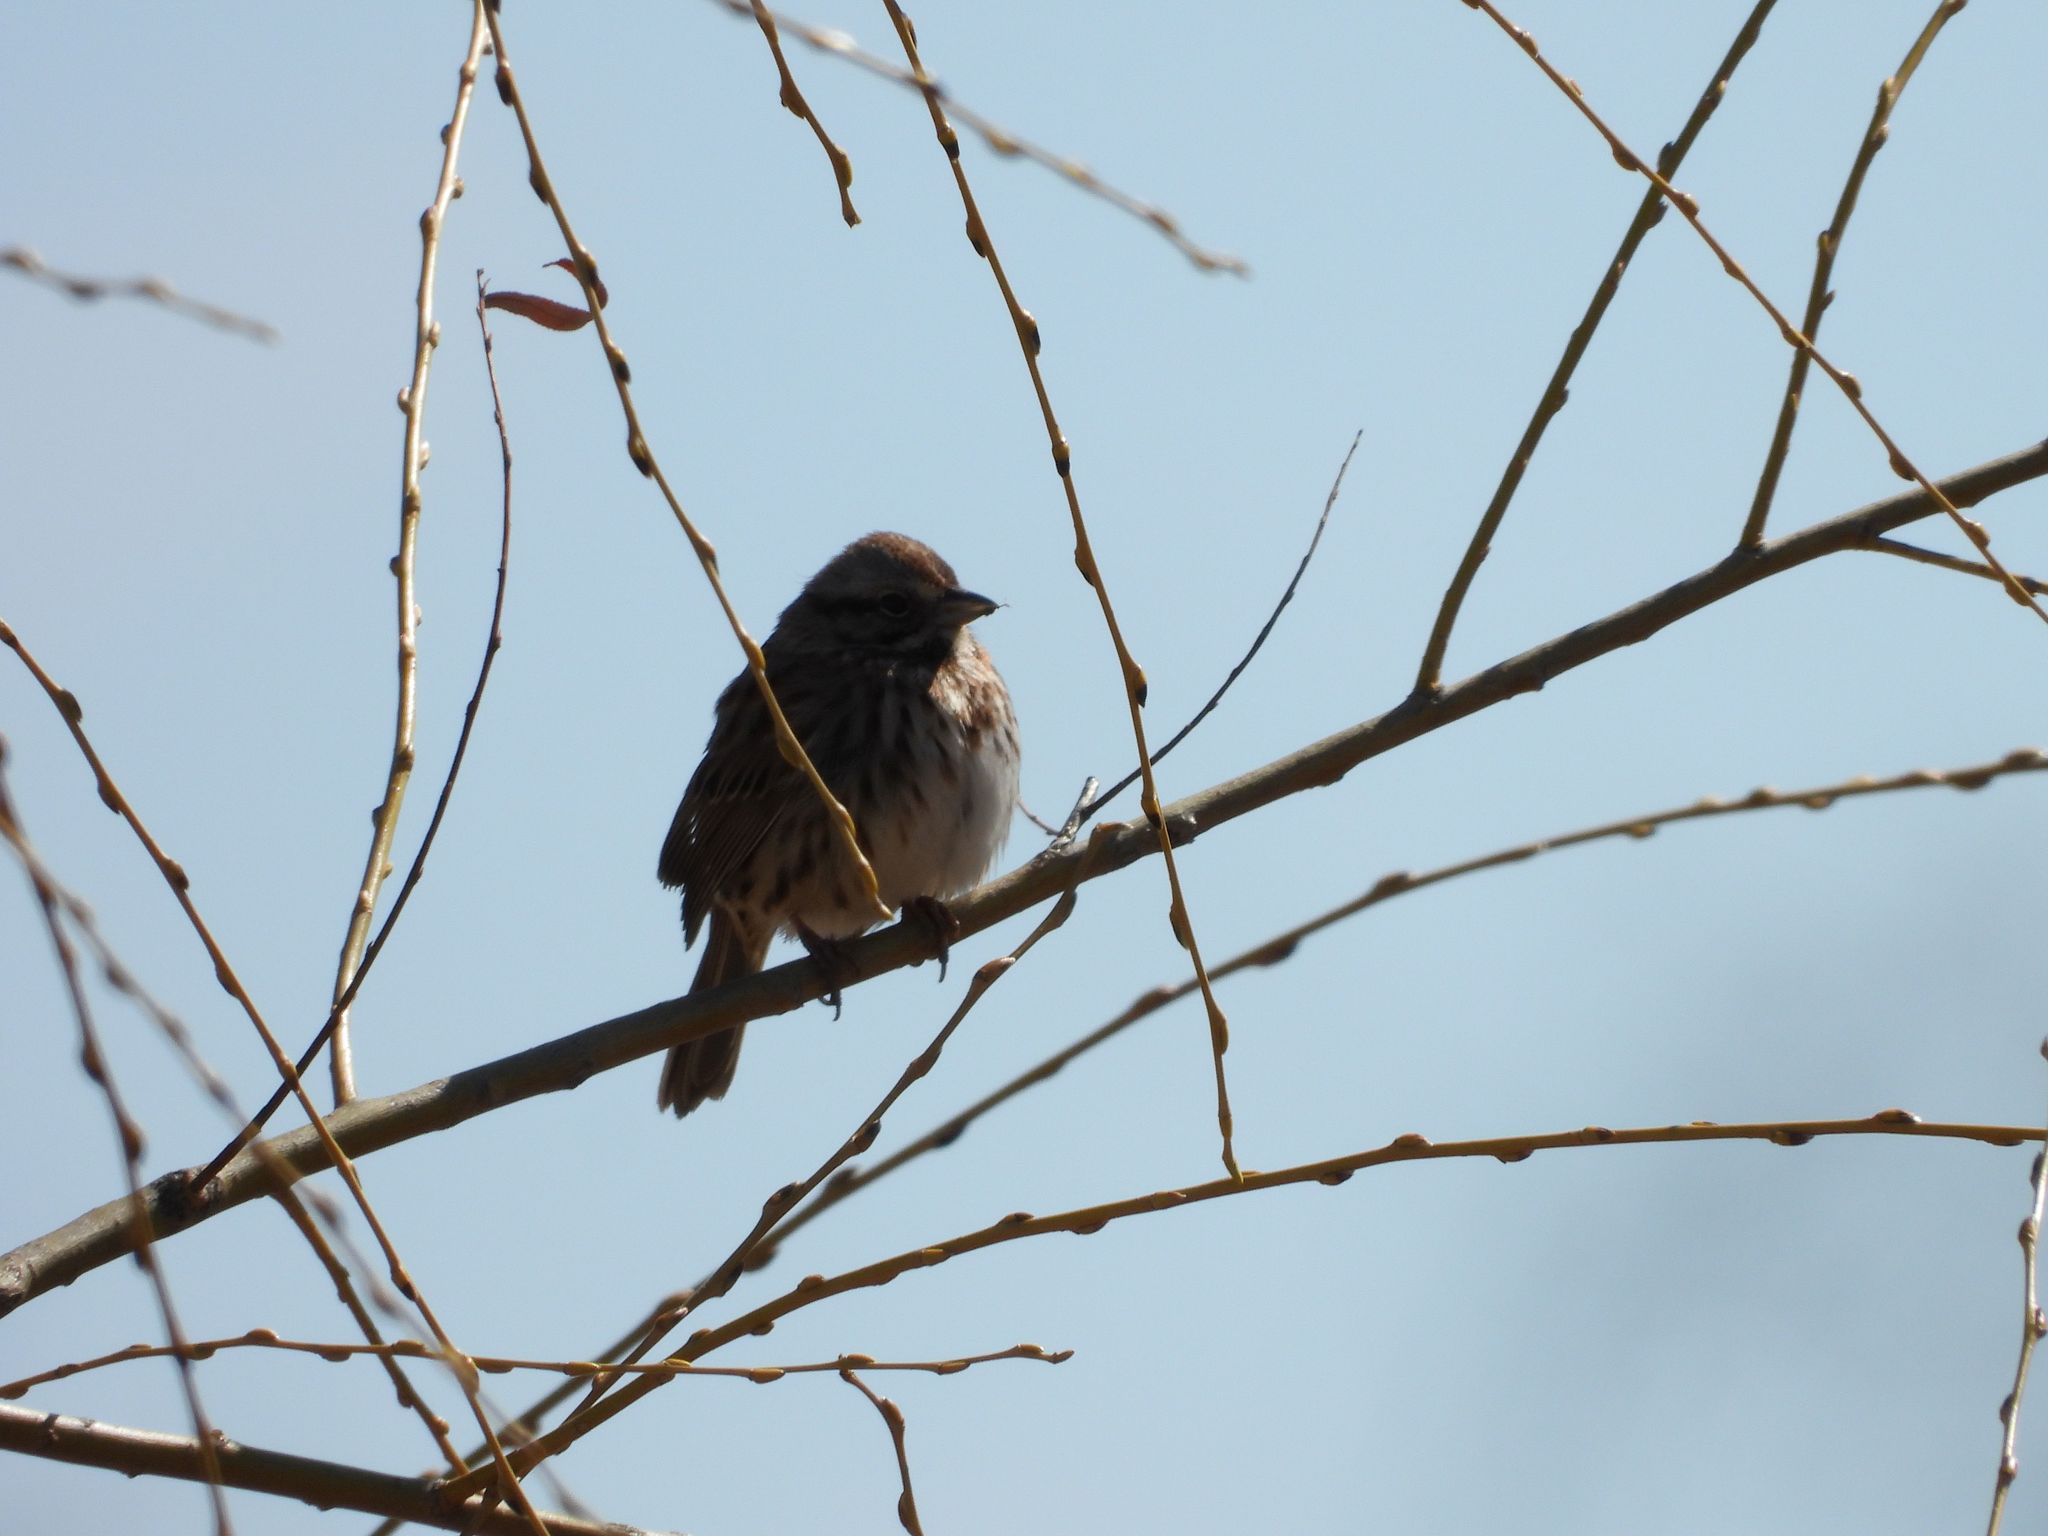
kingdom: Animalia
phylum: Chordata
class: Aves
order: Passeriformes
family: Passerellidae
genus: Melospiza
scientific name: Melospiza melodia
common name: Song sparrow
